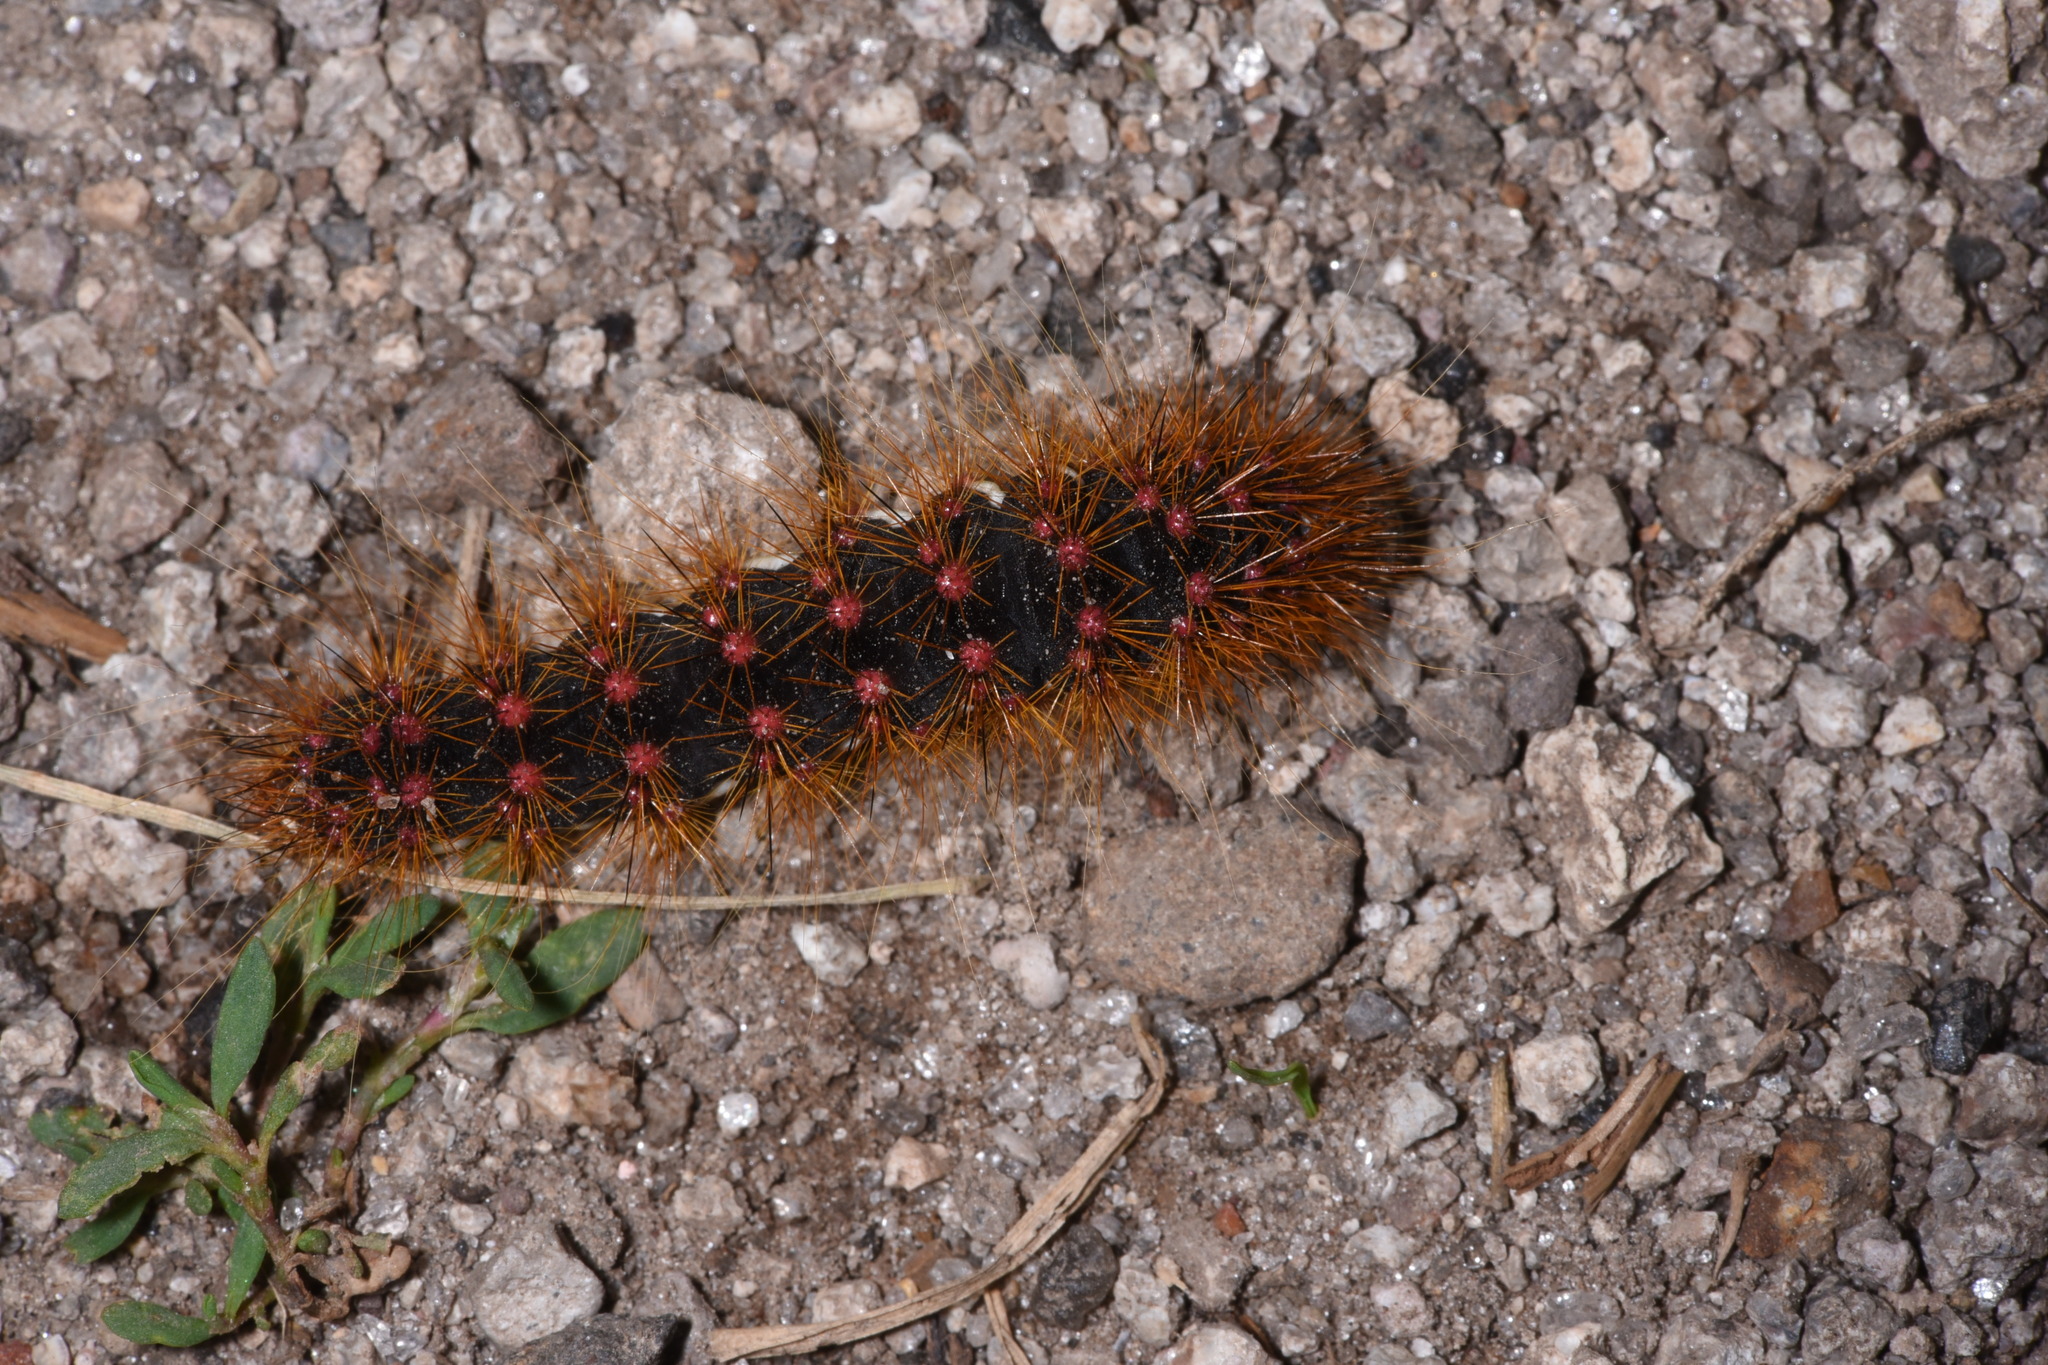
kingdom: Animalia
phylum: Arthropoda
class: Insecta
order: Lepidoptera
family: Noctuidae
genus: Acronicta
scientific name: Acronicta lupini
